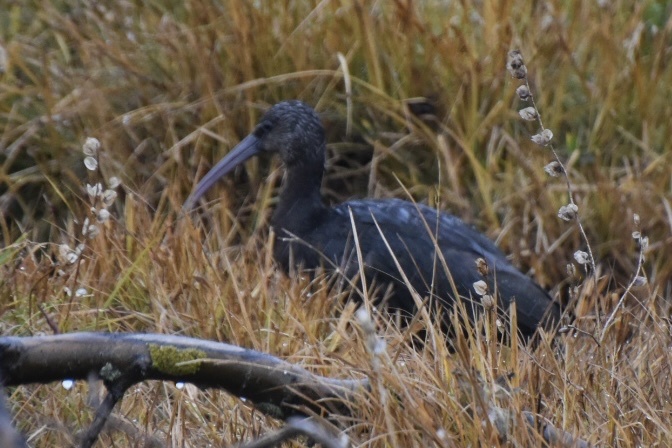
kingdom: Animalia
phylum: Chordata
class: Aves
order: Pelecaniformes
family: Threskiornithidae
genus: Plegadis
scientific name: Plegadis falcinellus
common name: Glossy ibis
